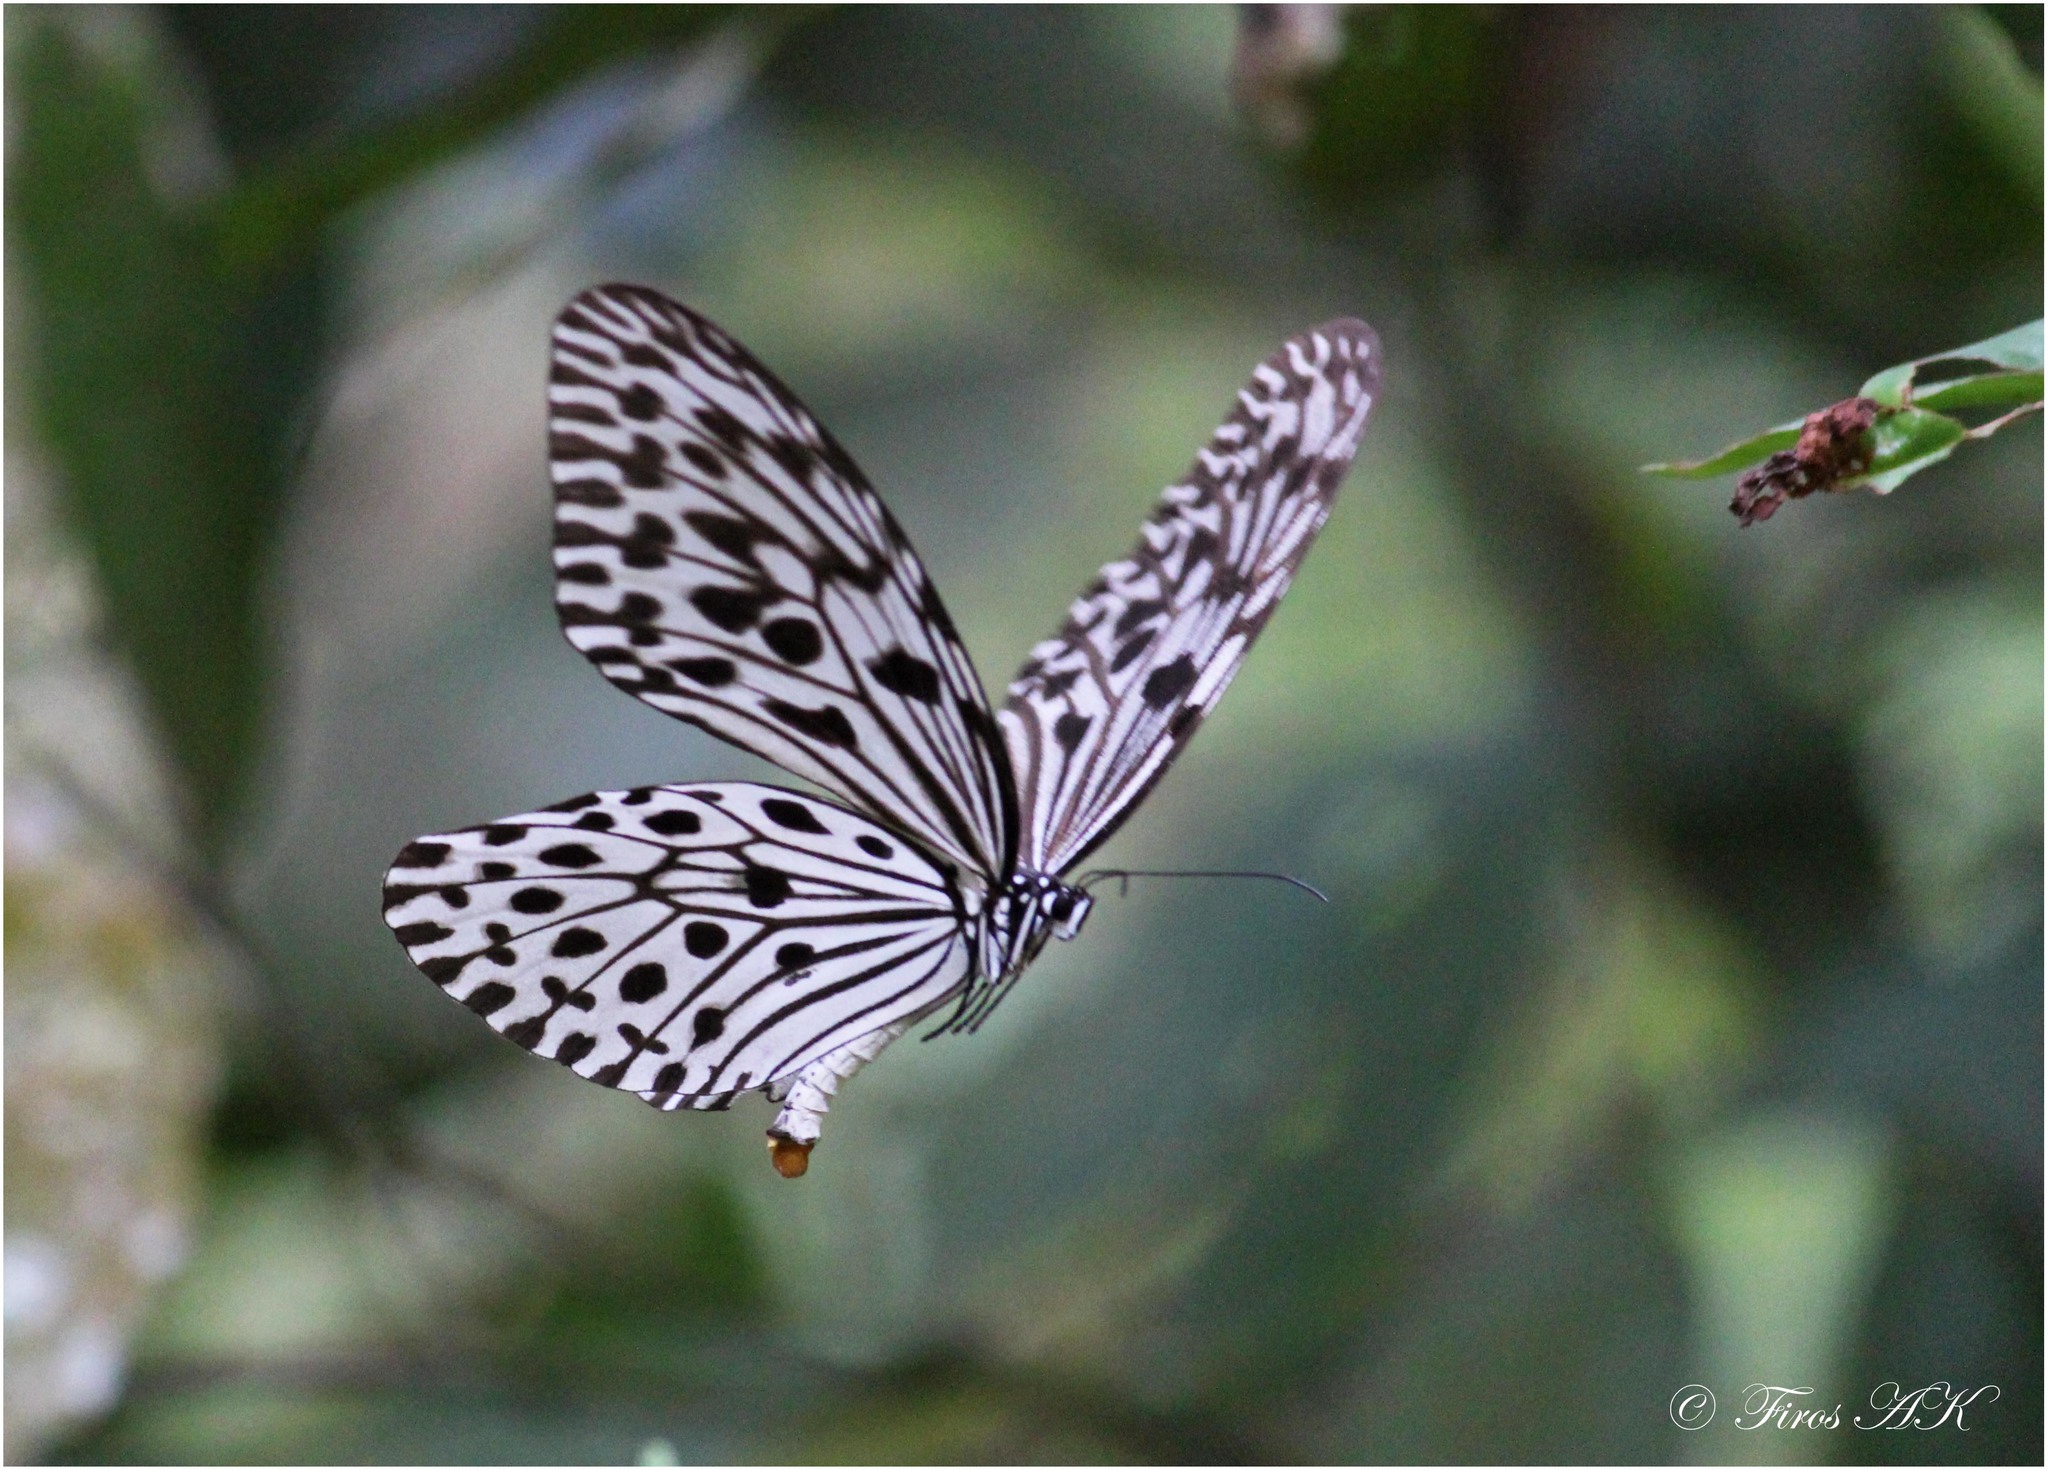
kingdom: Animalia
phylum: Arthropoda
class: Insecta
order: Lepidoptera
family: Nymphalidae
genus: Idea
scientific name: Idea malabarica
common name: Malabar tree-nymph
